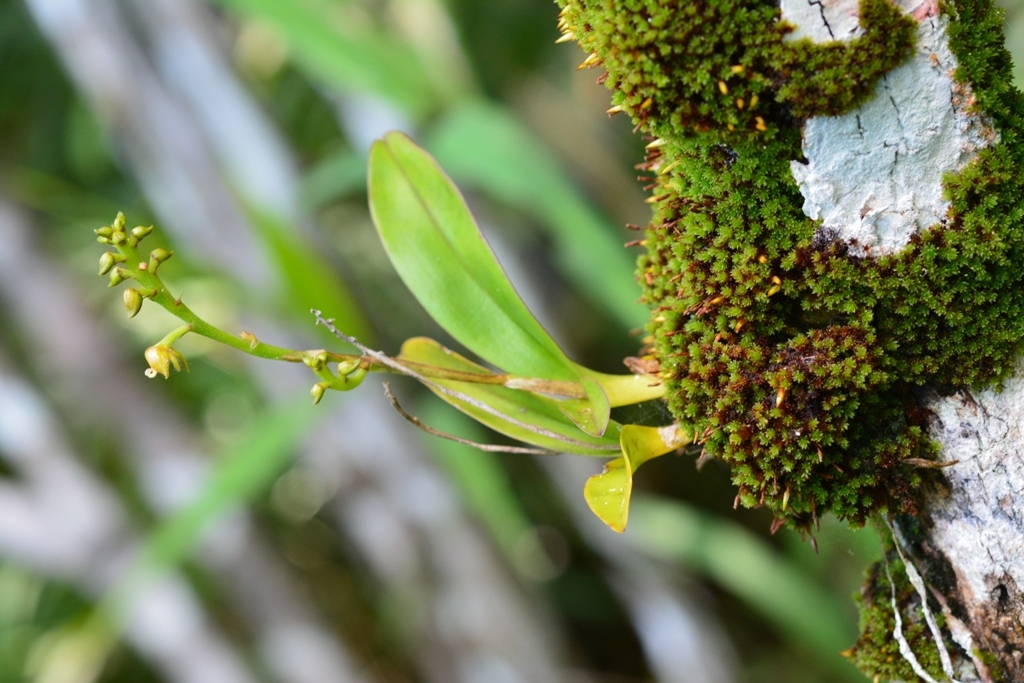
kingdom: Plantae
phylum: Tracheophyta
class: Liliopsida
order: Asparagales
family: Orchidaceae
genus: Polystachya
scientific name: Polystachya foliosa
